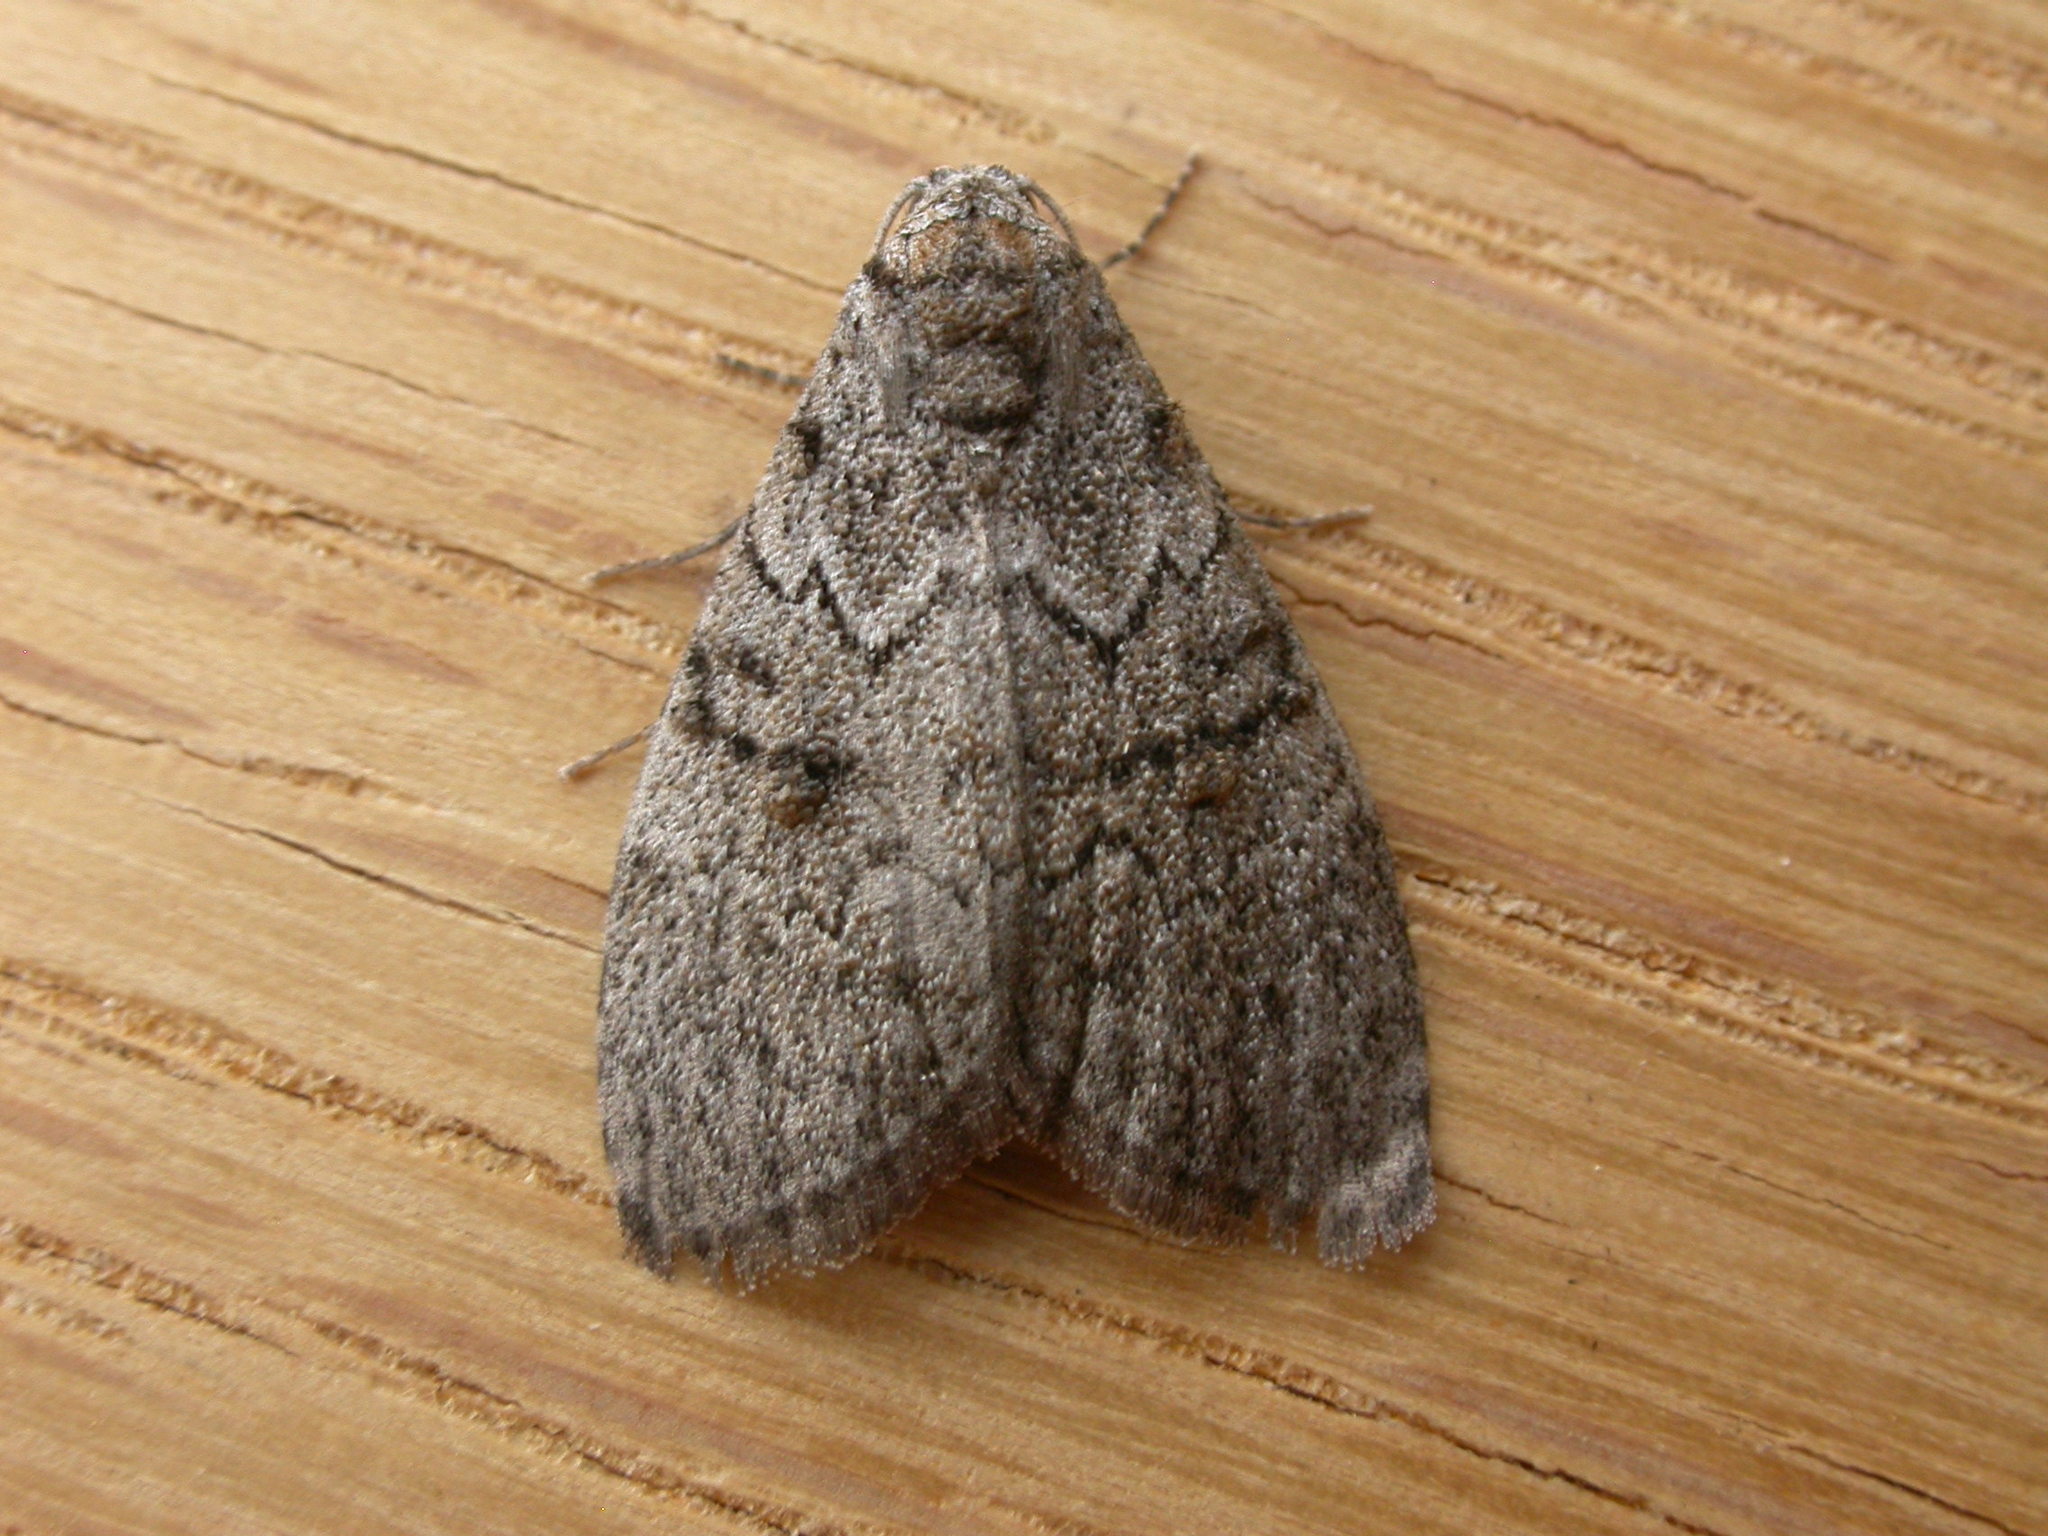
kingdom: Animalia
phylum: Arthropoda
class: Insecta
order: Lepidoptera
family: Nolidae
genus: Uraba
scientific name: Uraba lugens
